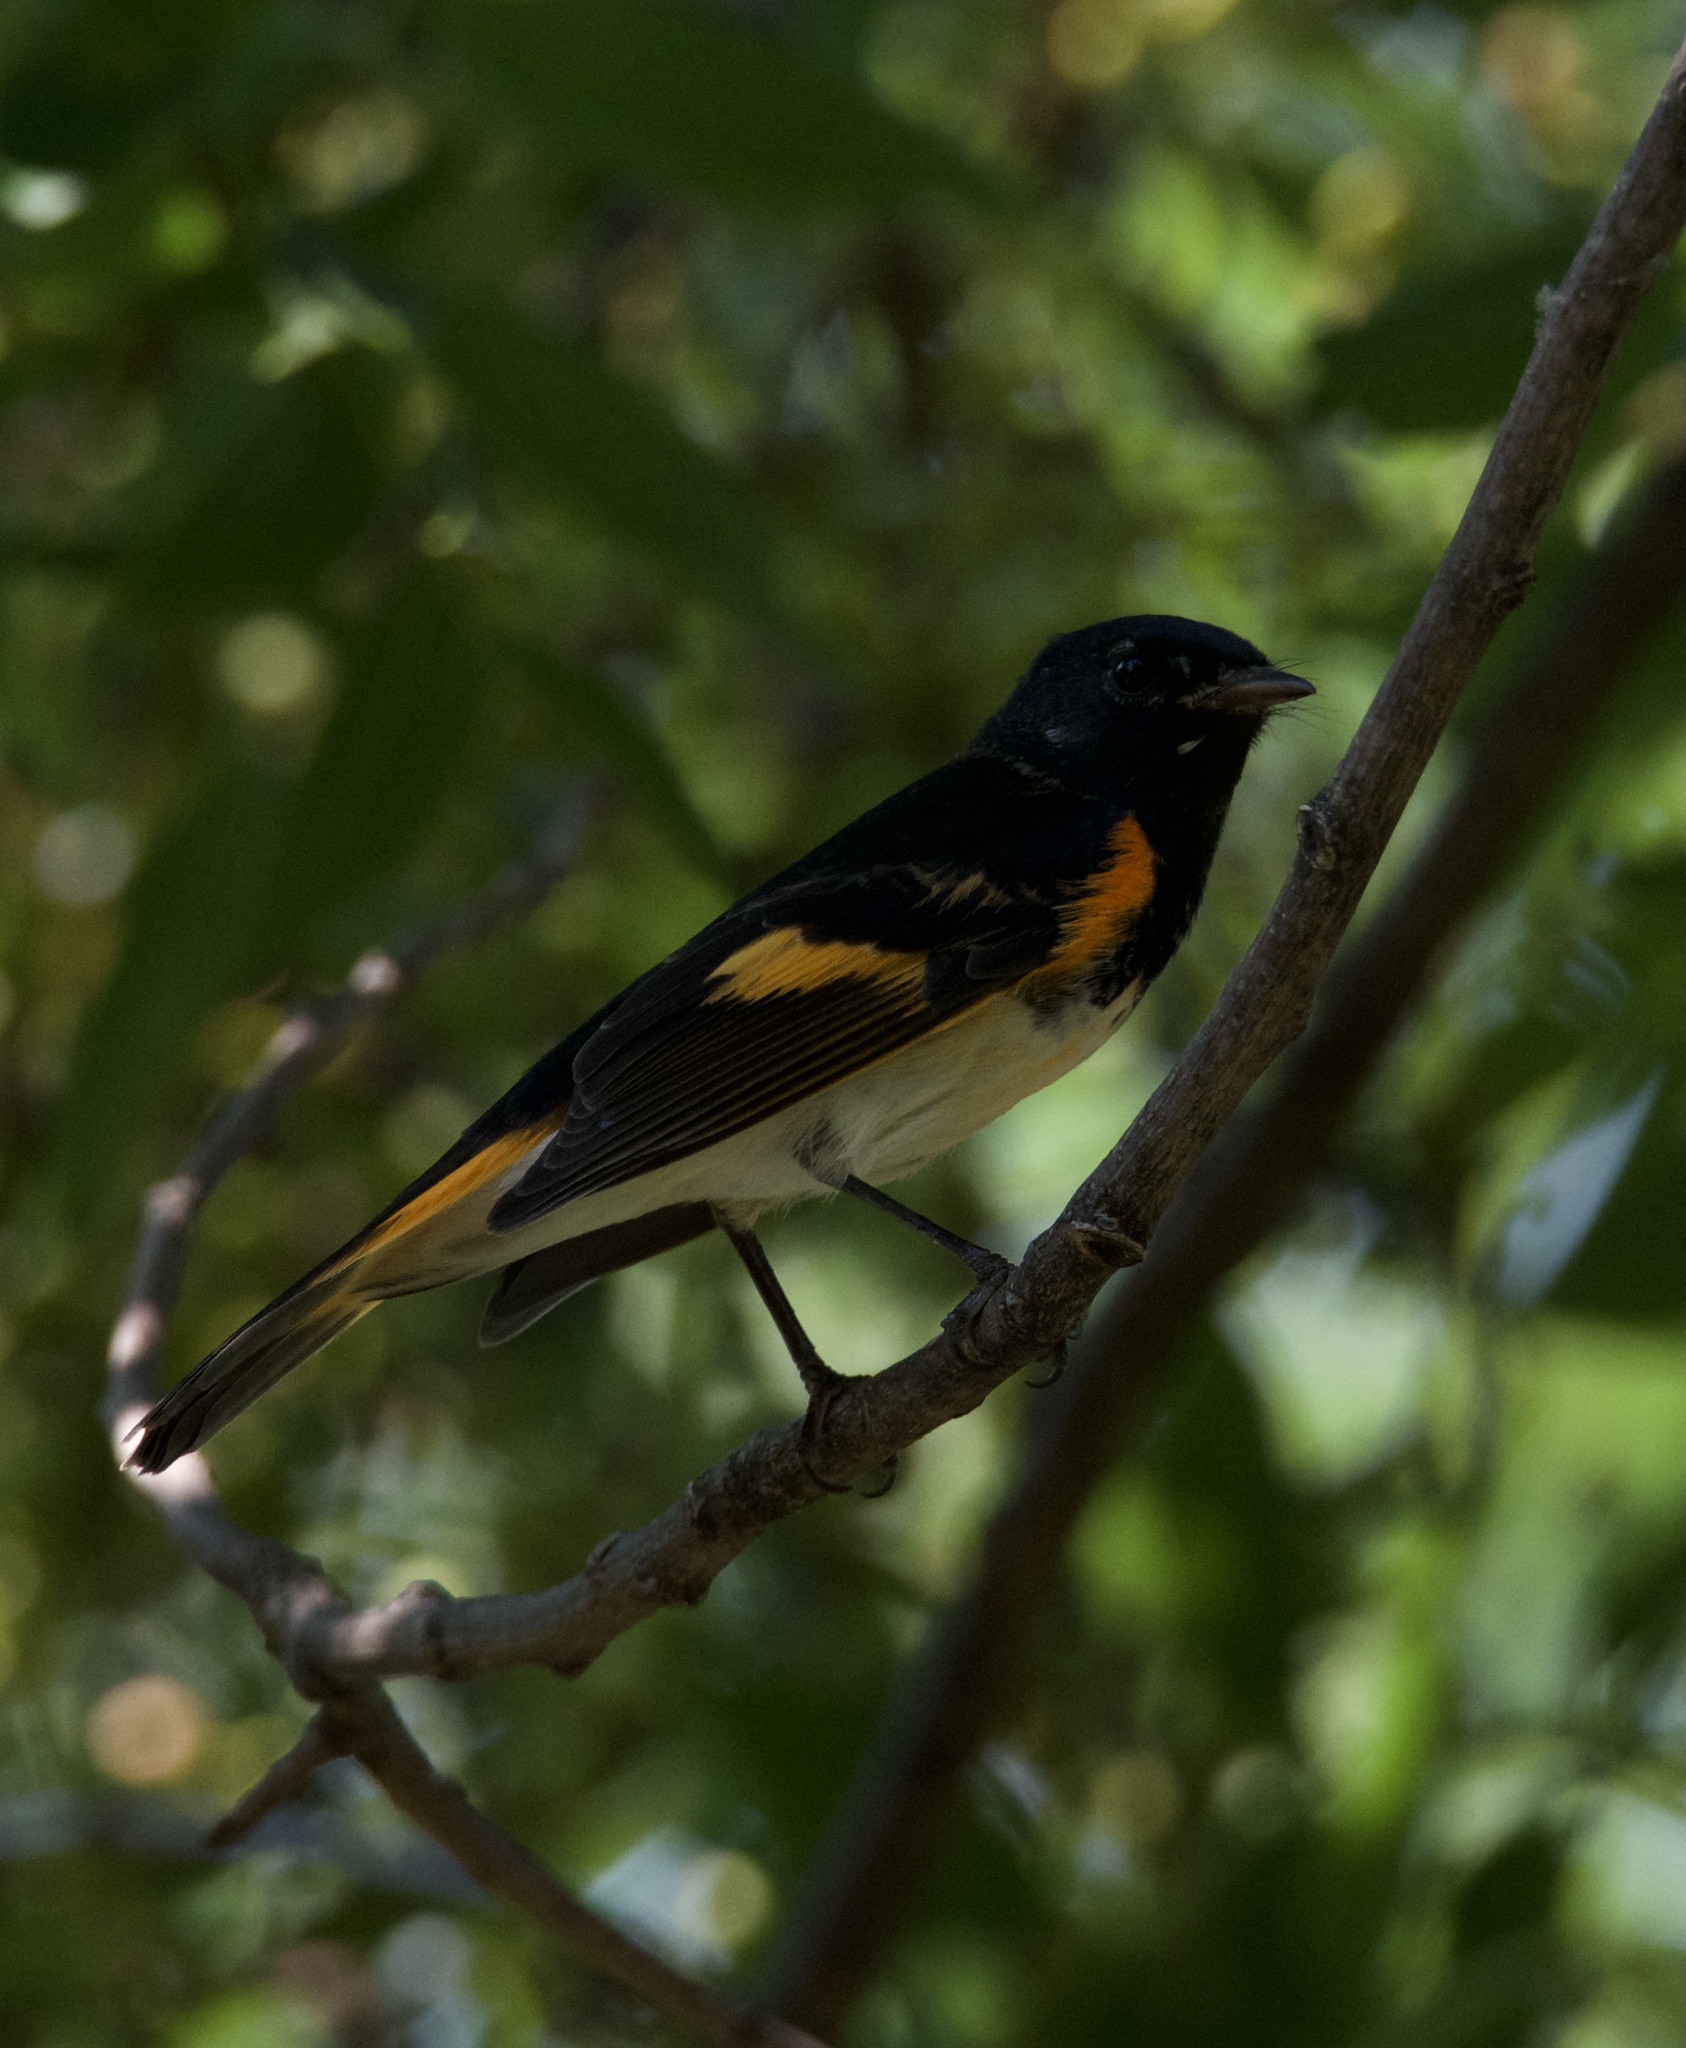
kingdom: Animalia
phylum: Chordata
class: Aves
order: Passeriformes
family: Parulidae
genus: Setophaga
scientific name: Setophaga ruticilla
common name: American redstart
